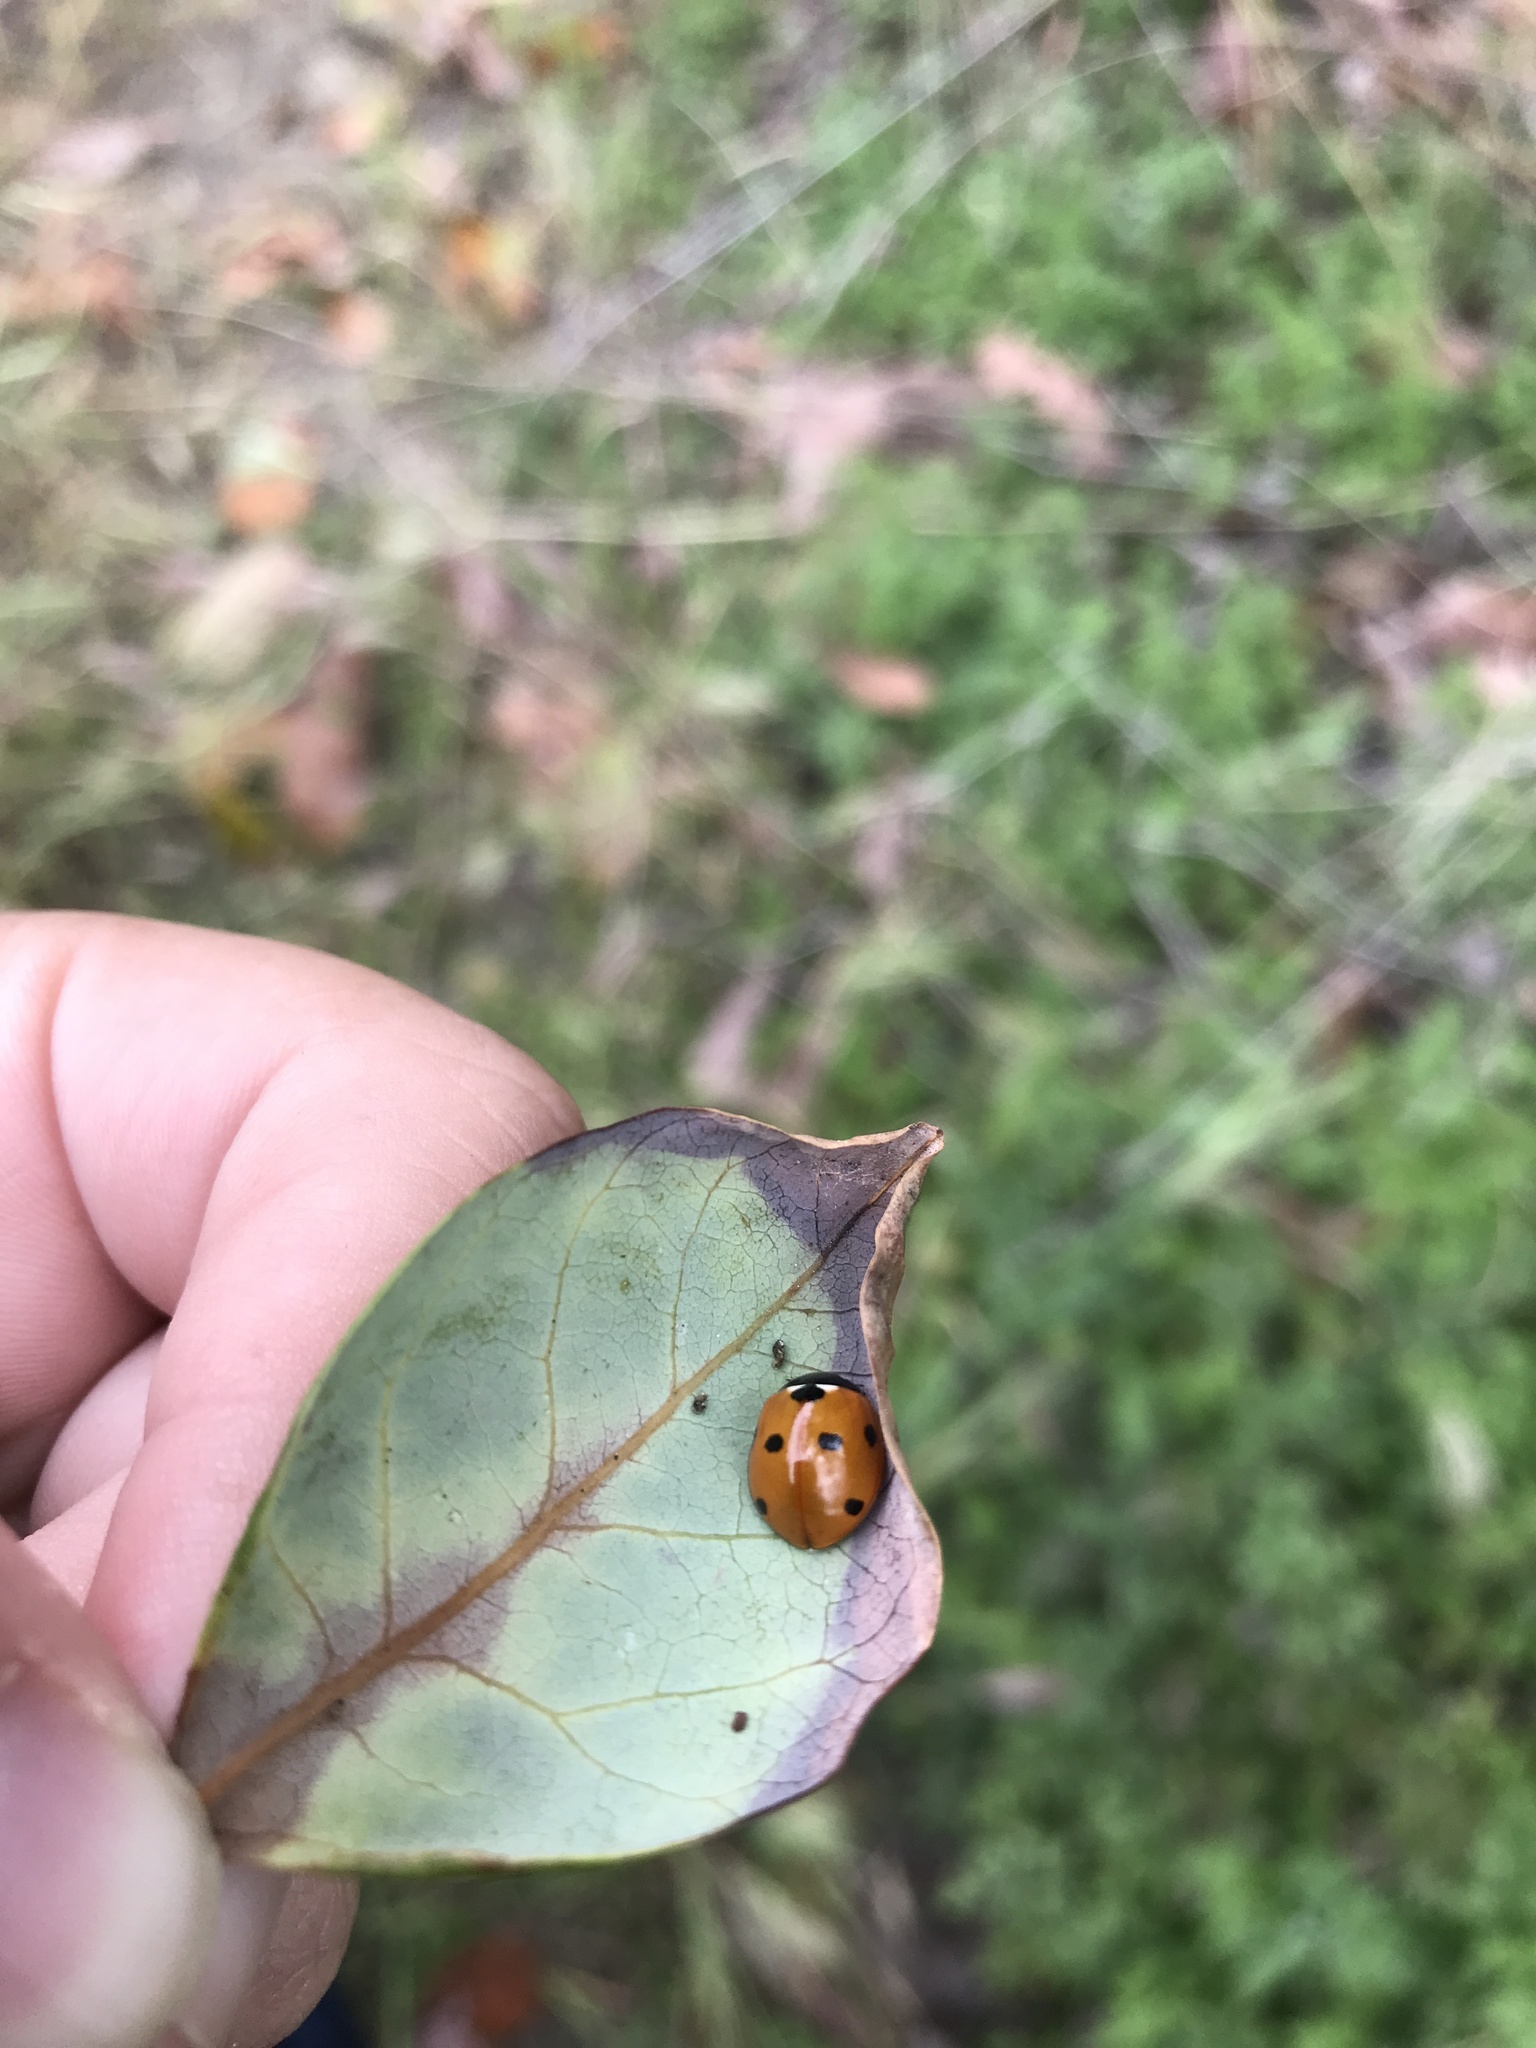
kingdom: Animalia
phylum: Arthropoda
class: Insecta
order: Coleoptera
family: Coccinellidae
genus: Coccinella
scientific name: Coccinella septempunctata
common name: Sevenspotted lady beetle
